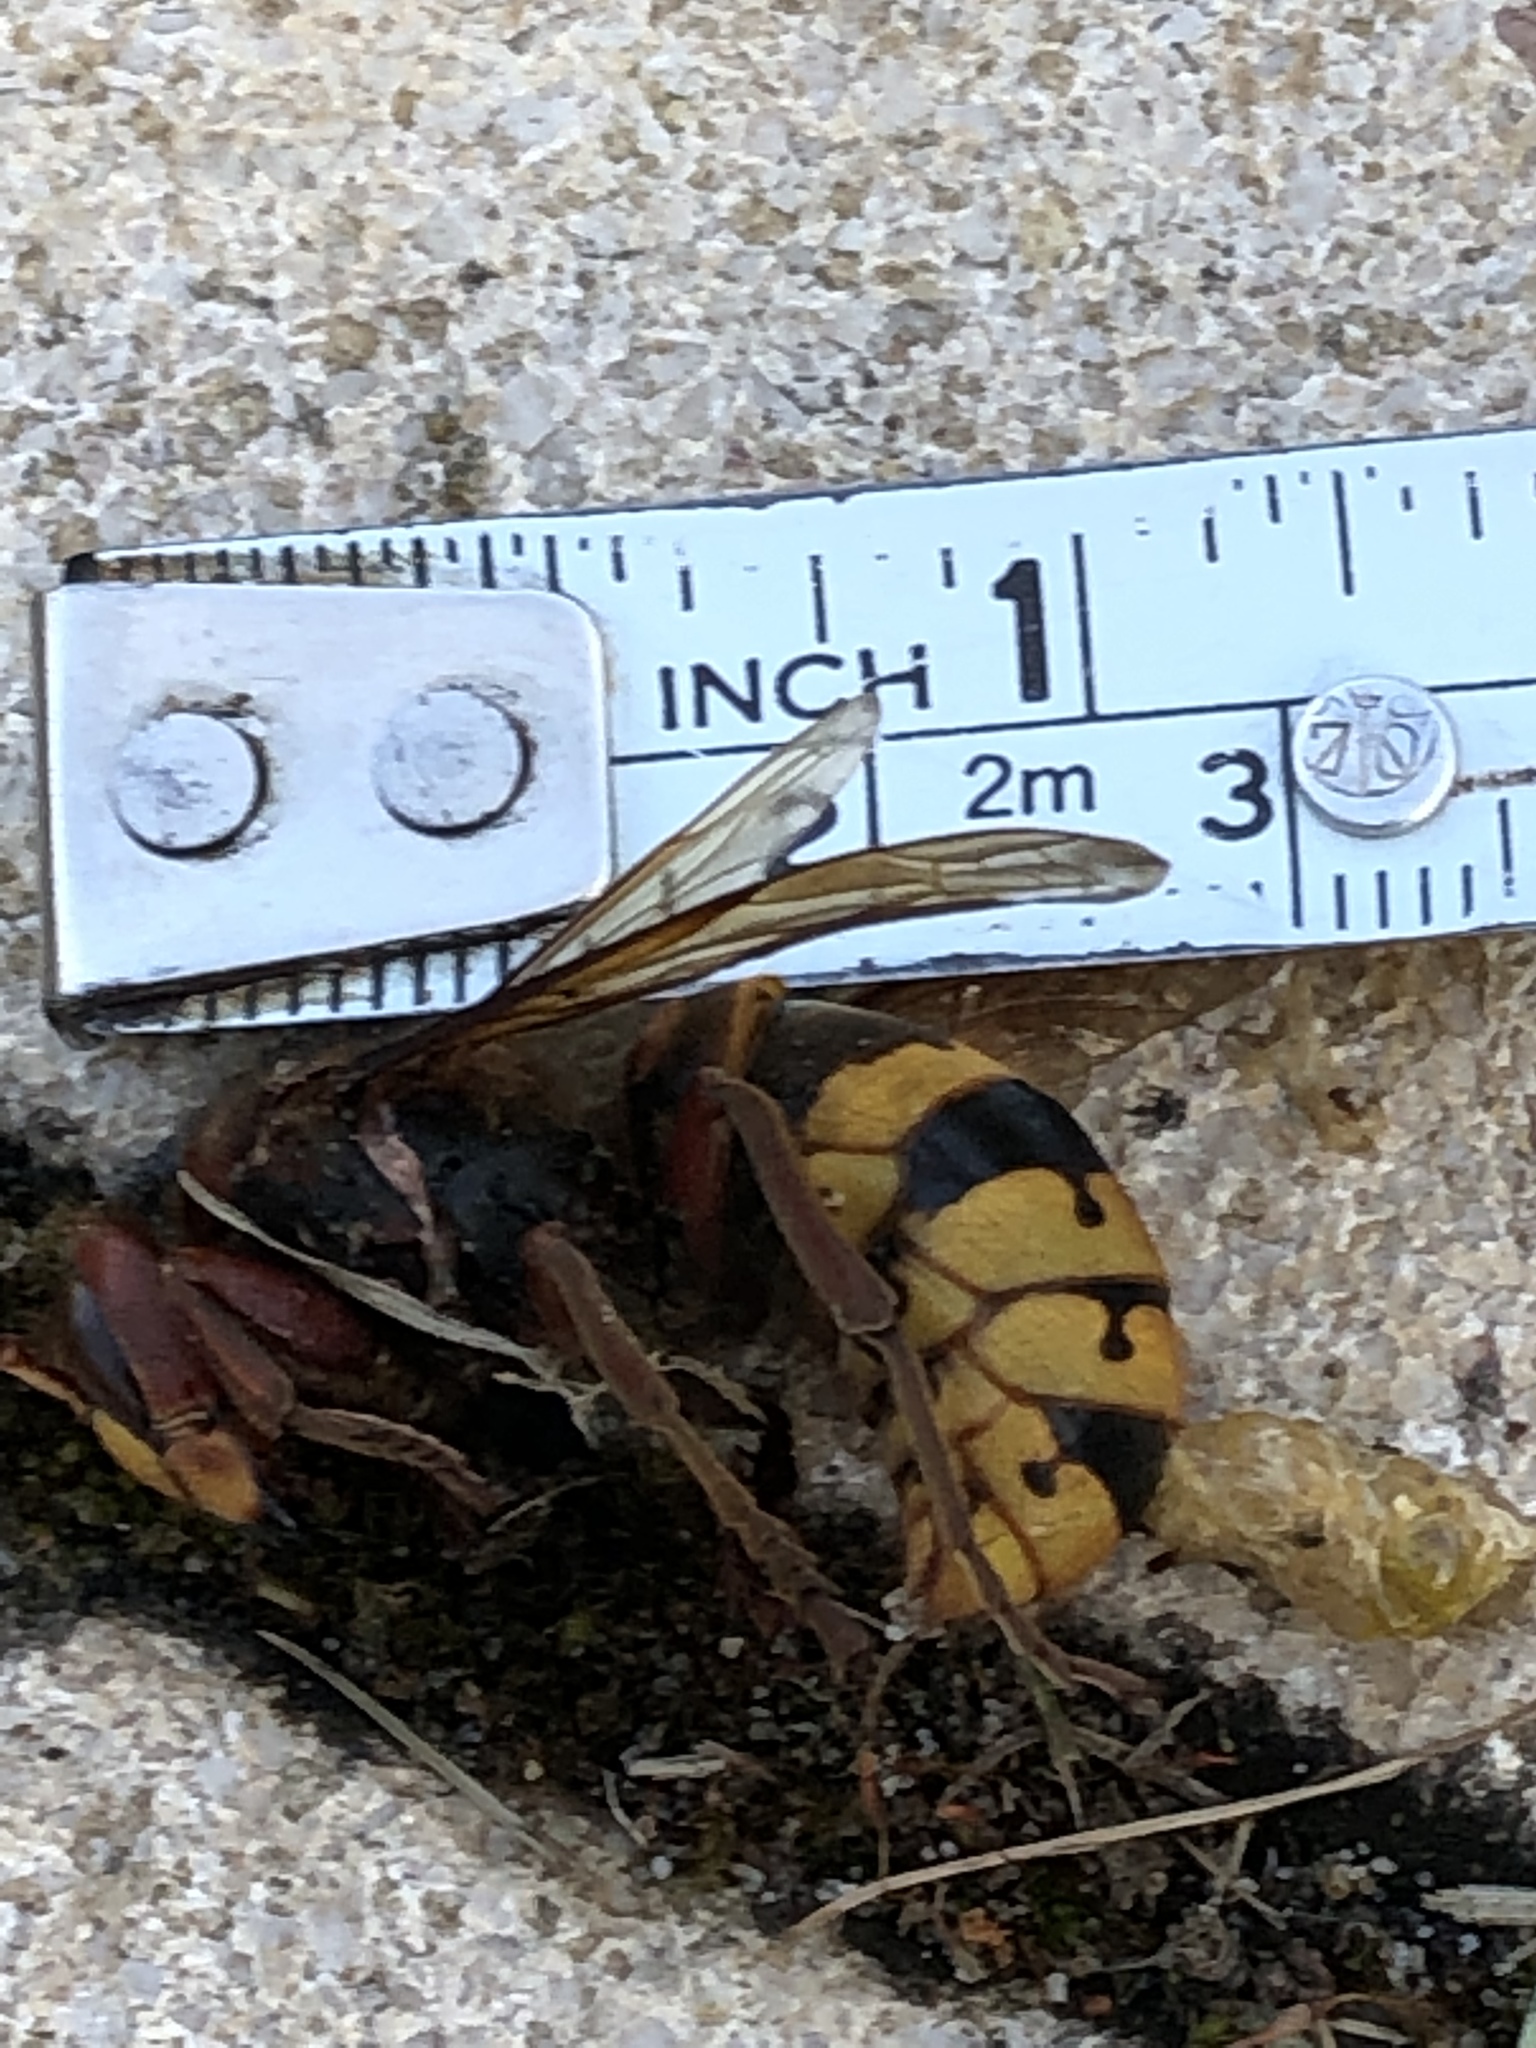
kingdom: Animalia
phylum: Arthropoda
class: Insecta
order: Hymenoptera
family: Vespidae
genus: Vespa
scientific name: Vespa crabro
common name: Hornet
